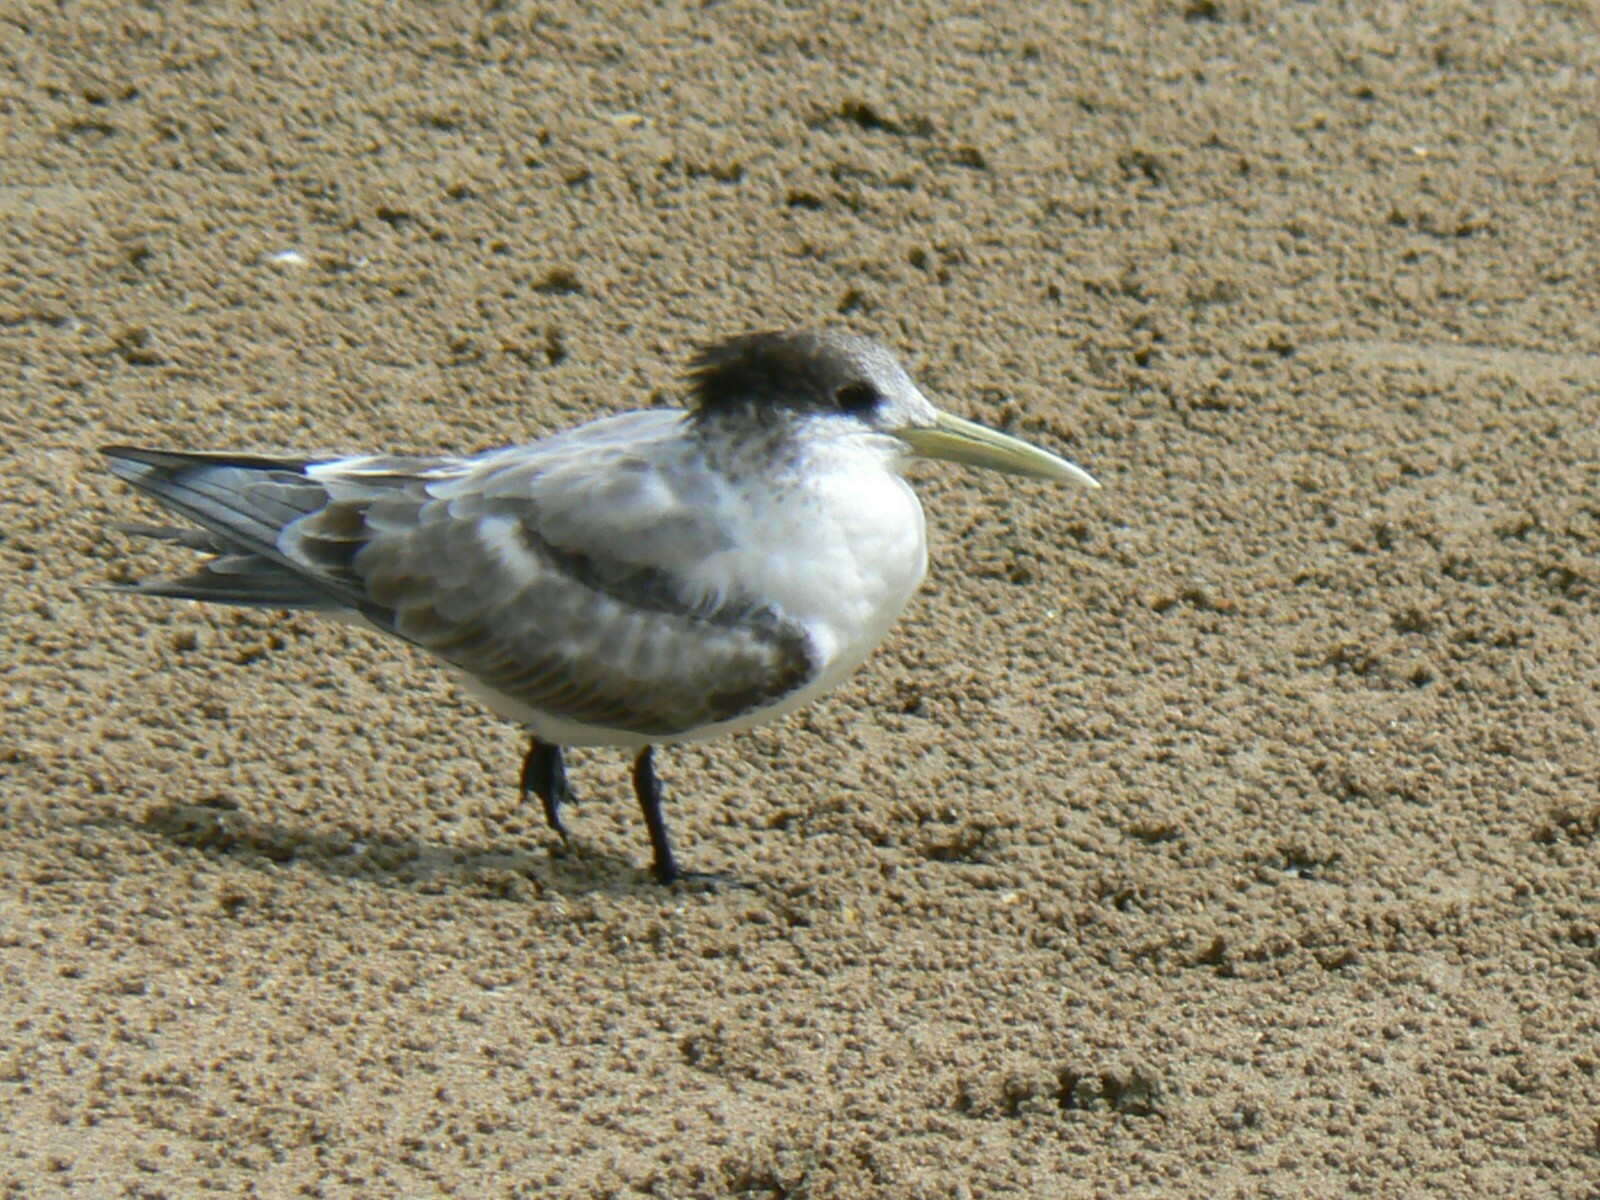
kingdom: Animalia
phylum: Chordata
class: Aves
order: Charadriiformes
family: Laridae
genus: Thalasseus
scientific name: Thalasseus bergii
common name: Greater crested tern
